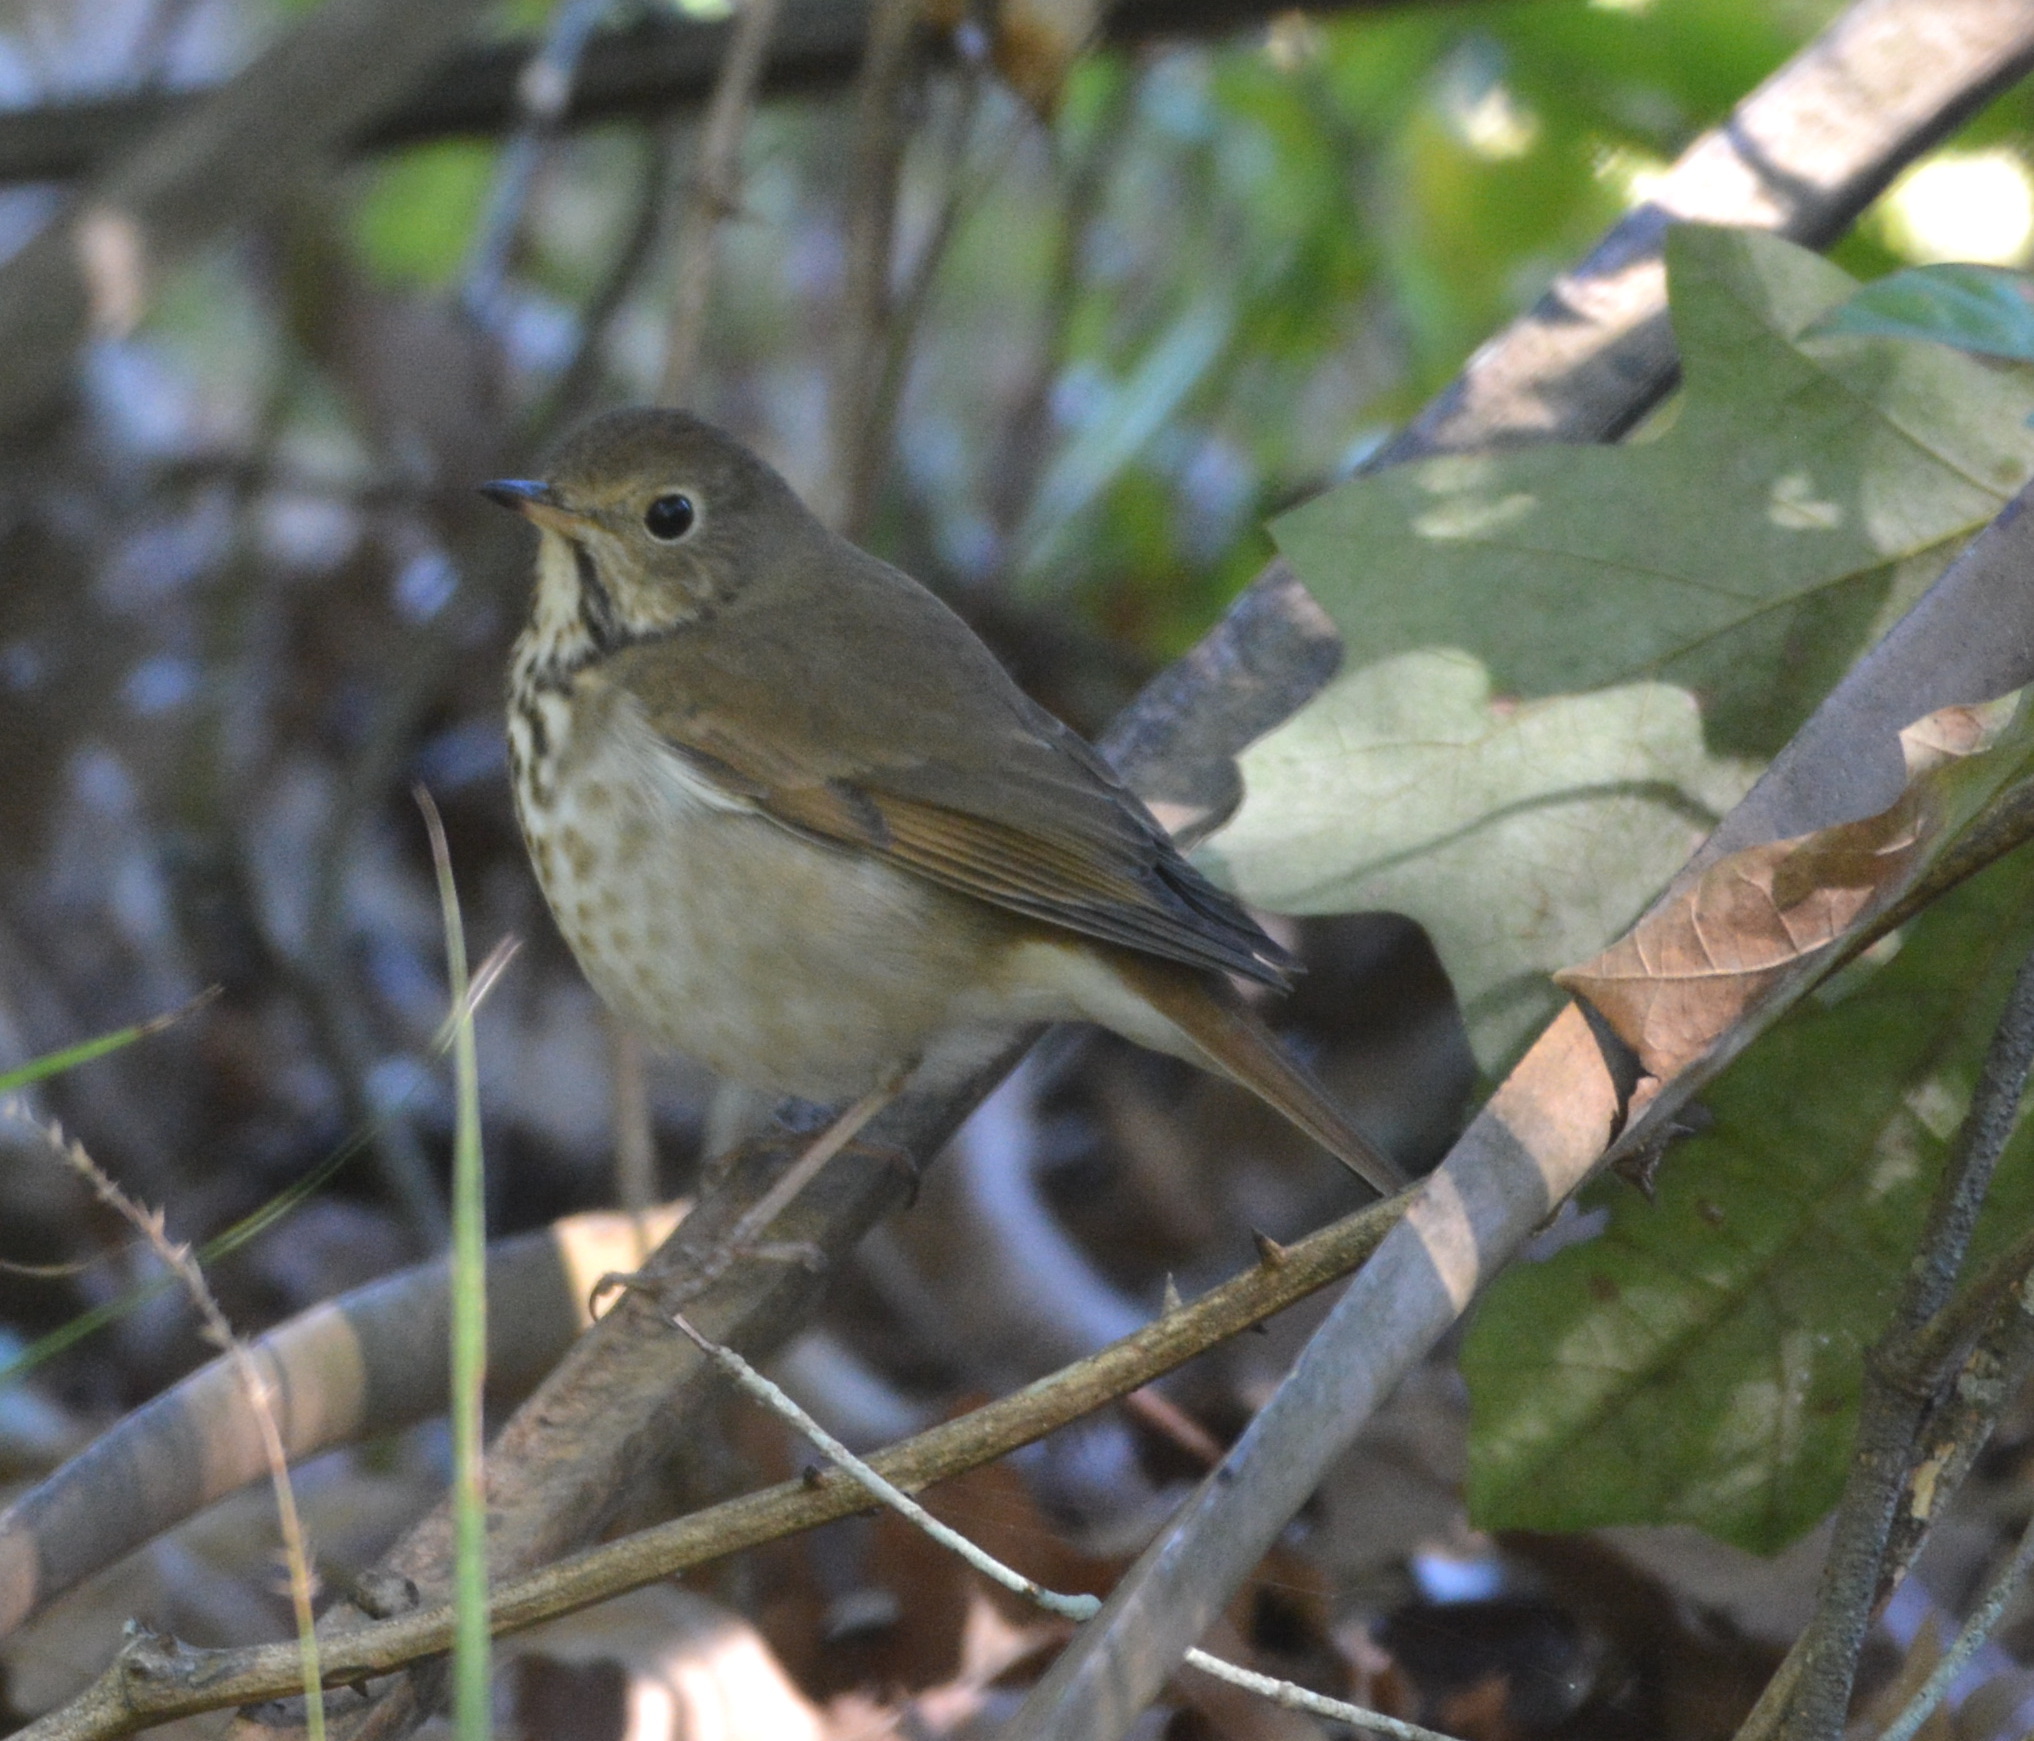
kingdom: Animalia
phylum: Chordata
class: Aves
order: Passeriformes
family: Turdidae
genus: Catharus
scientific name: Catharus guttatus
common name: Hermit thrush
